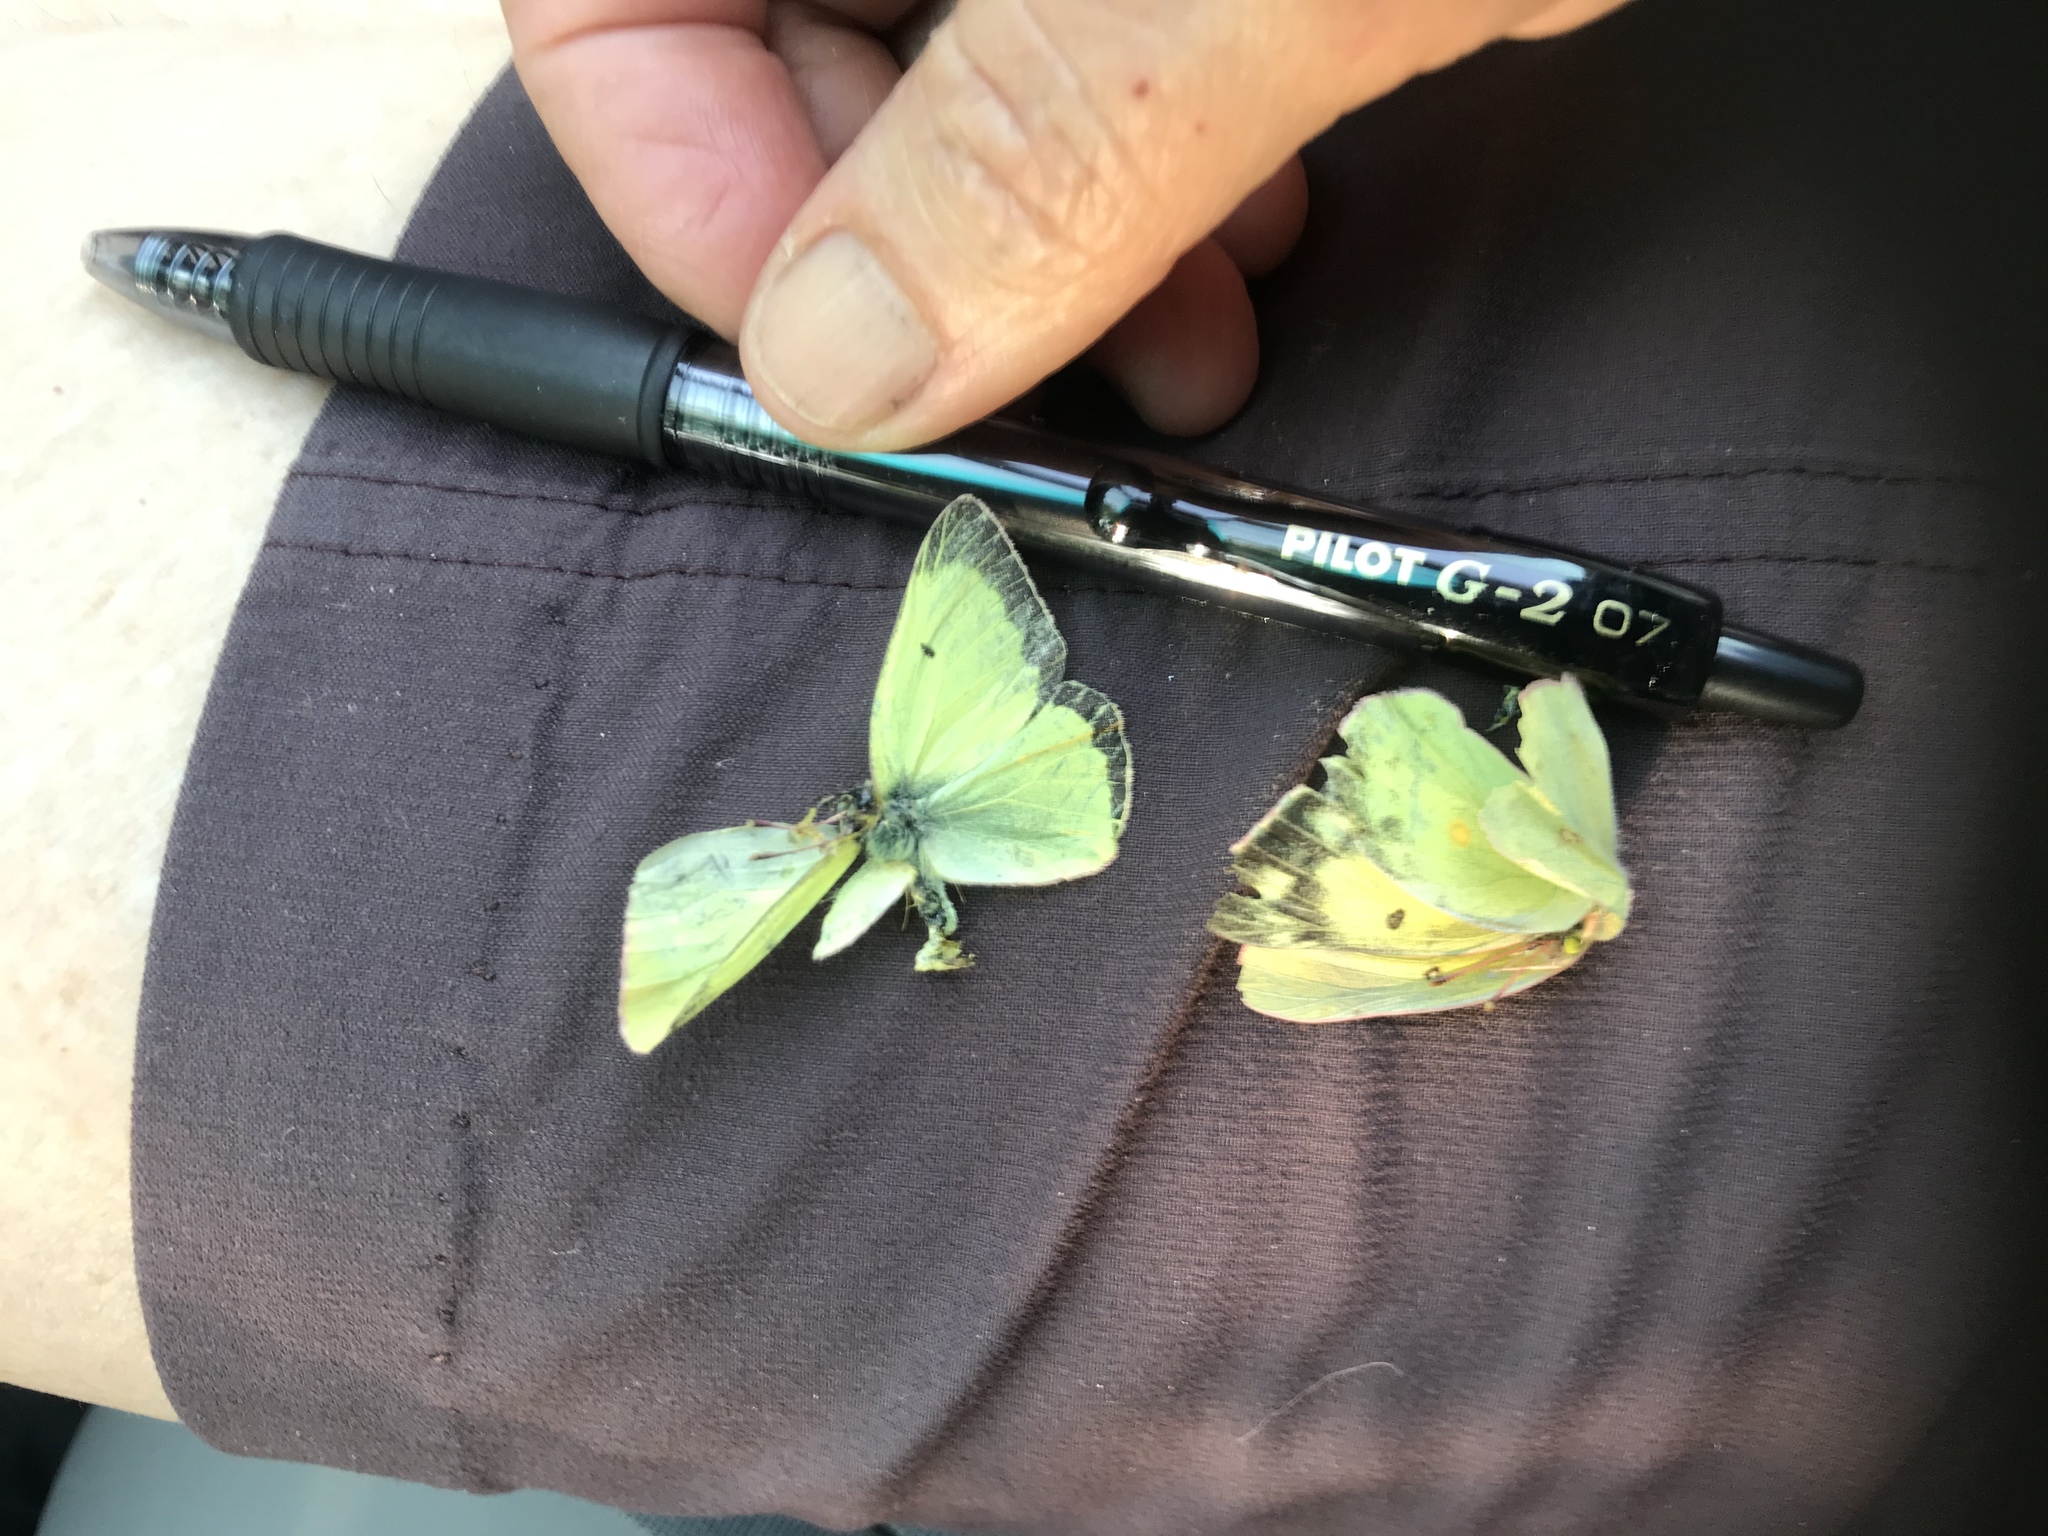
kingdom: Animalia
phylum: Arthropoda
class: Insecta
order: Lepidoptera
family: Pieridae
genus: Colias
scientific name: Colias philodice
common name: Clouded sulphur
